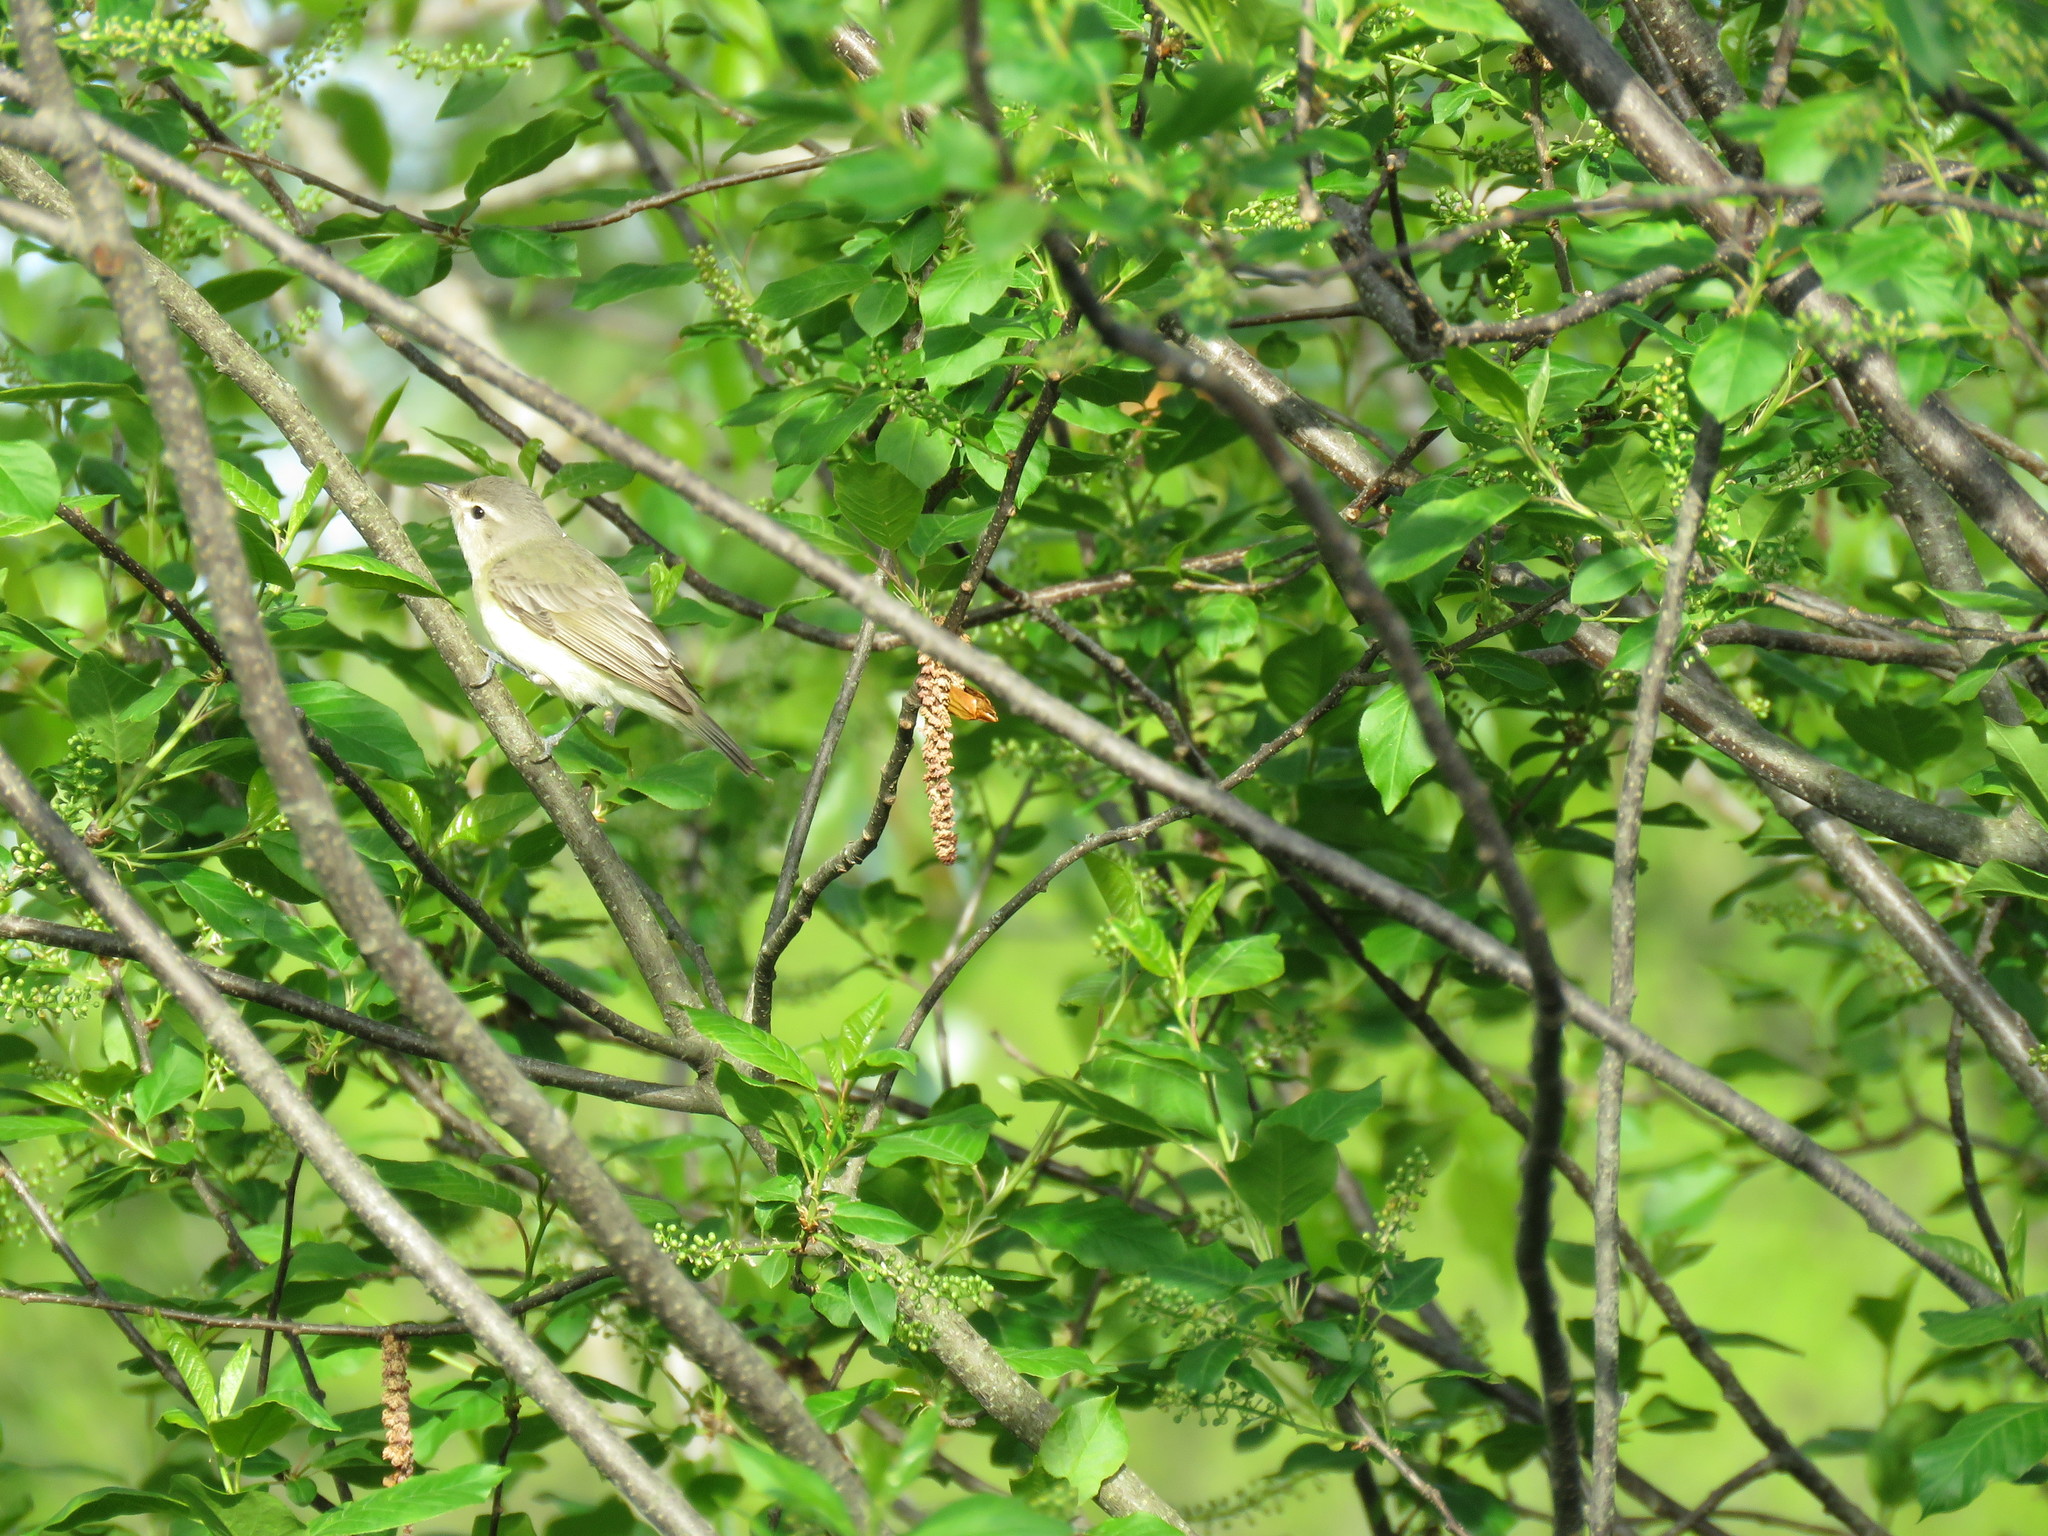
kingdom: Animalia
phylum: Chordata
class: Aves
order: Passeriformes
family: Vireonidae
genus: Vireo
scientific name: Vireo gilvus
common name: Warbling vireo
